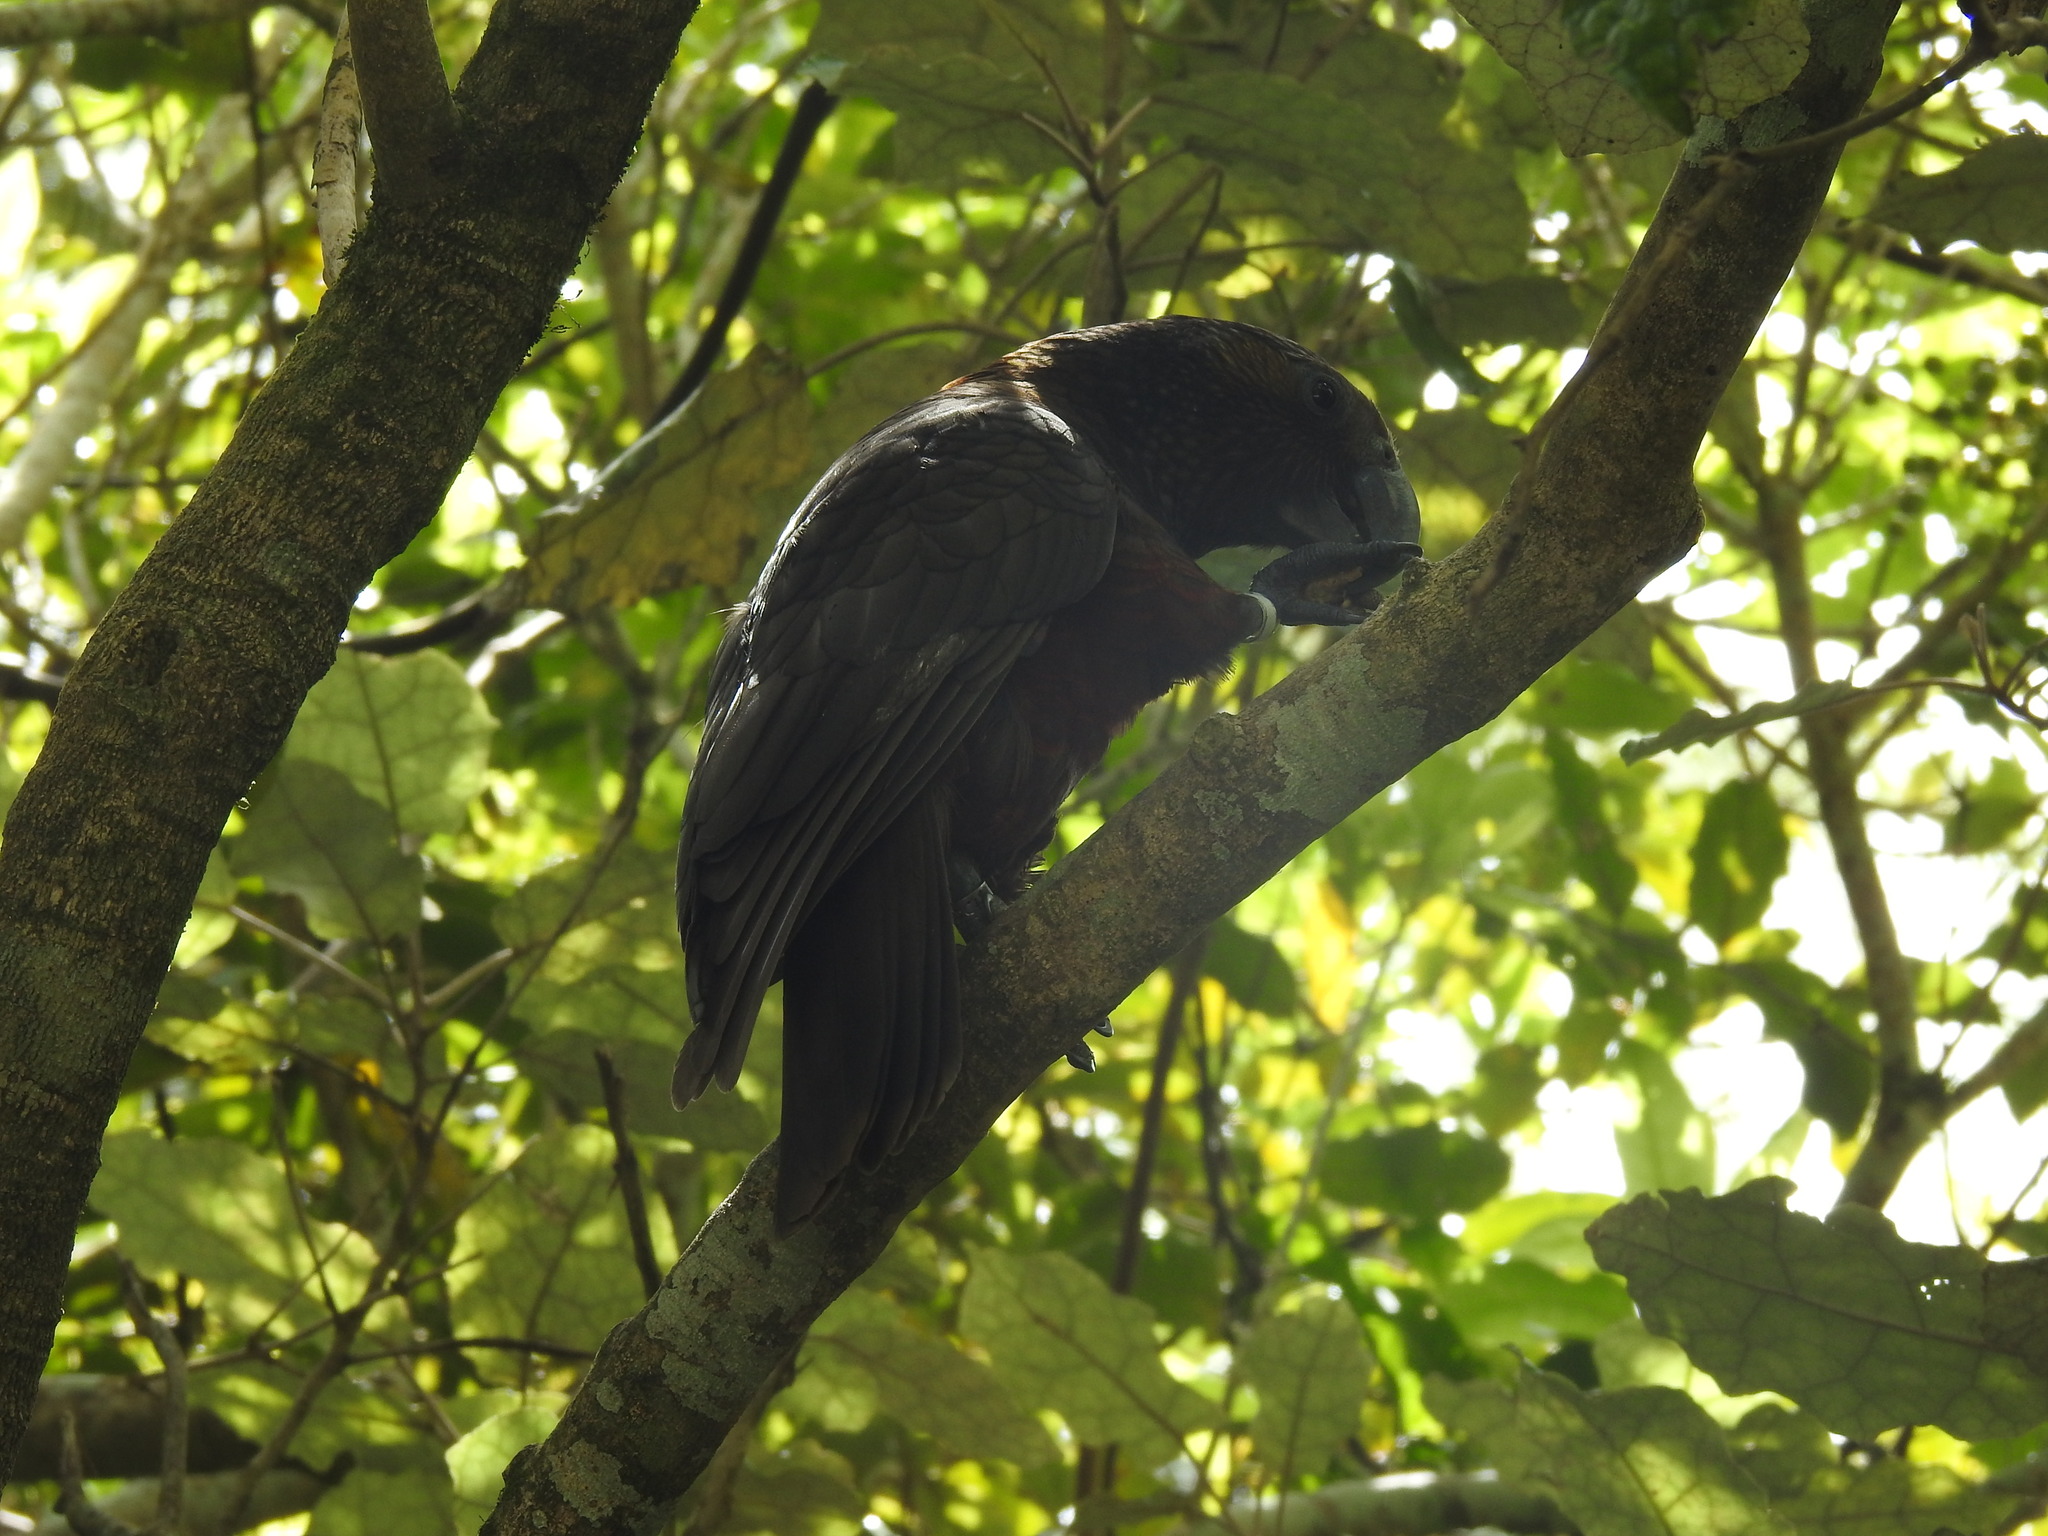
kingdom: Animalia
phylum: Chordata
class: Aves
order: Psittaciformes
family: Psittacidae
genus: Nestor
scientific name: Nestor meridionalis
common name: New zealand kaka
